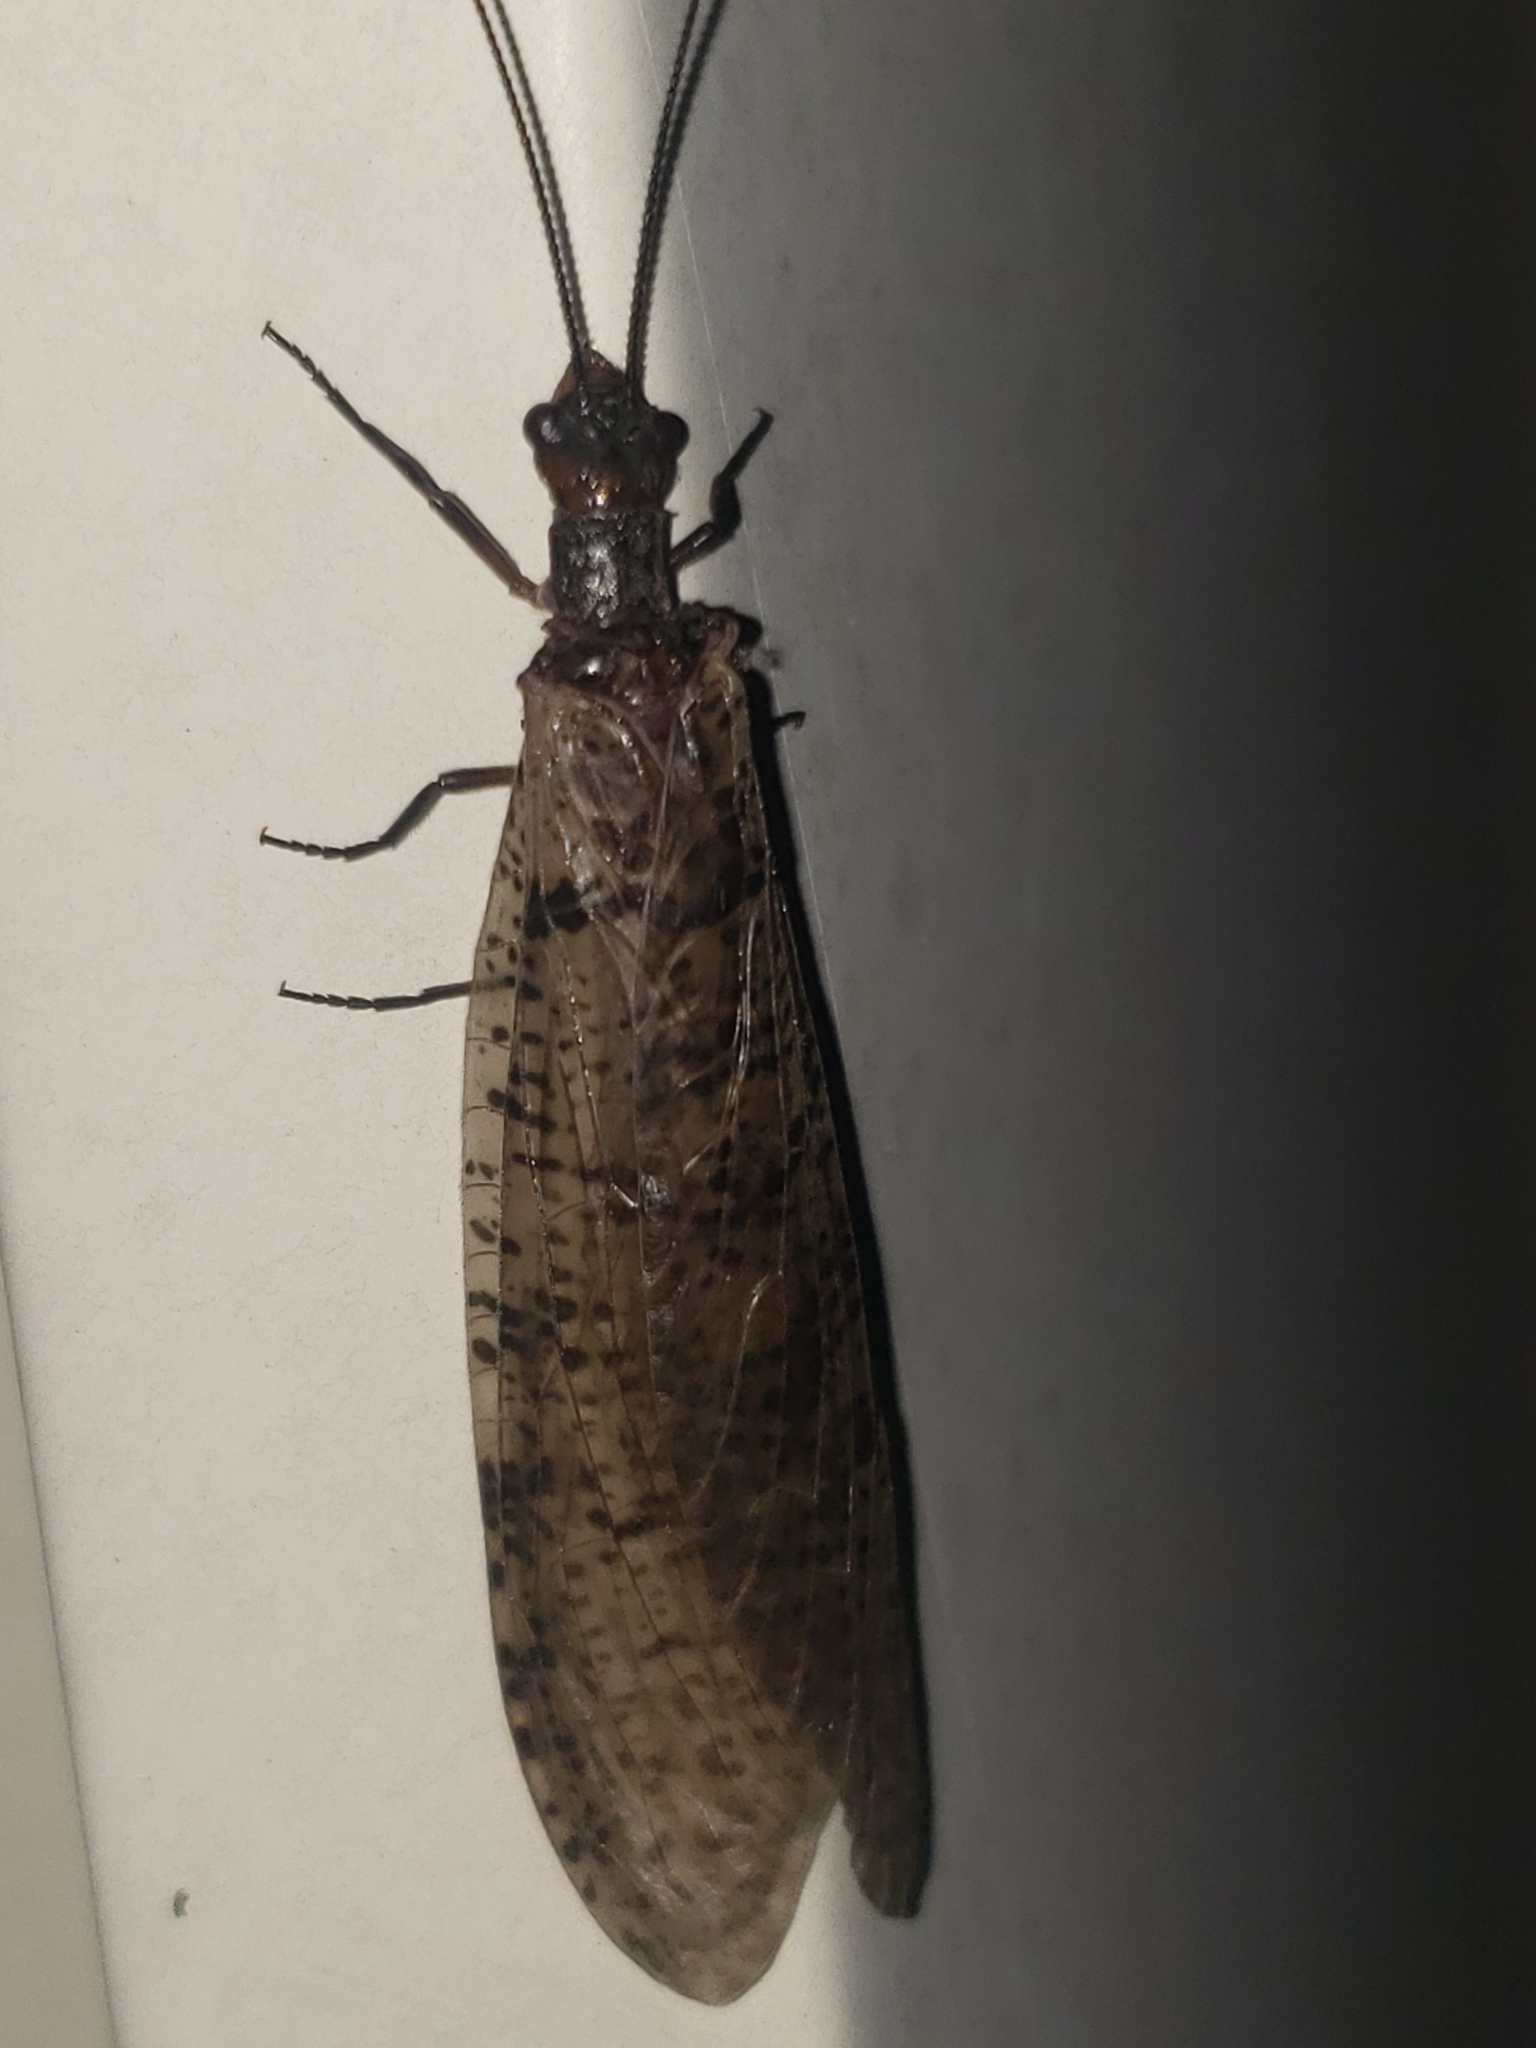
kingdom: Animalia
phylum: Arthropoda
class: Insecta
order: Megaloptera
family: Corydalidae
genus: Neohermes
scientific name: Neohermes concolor
